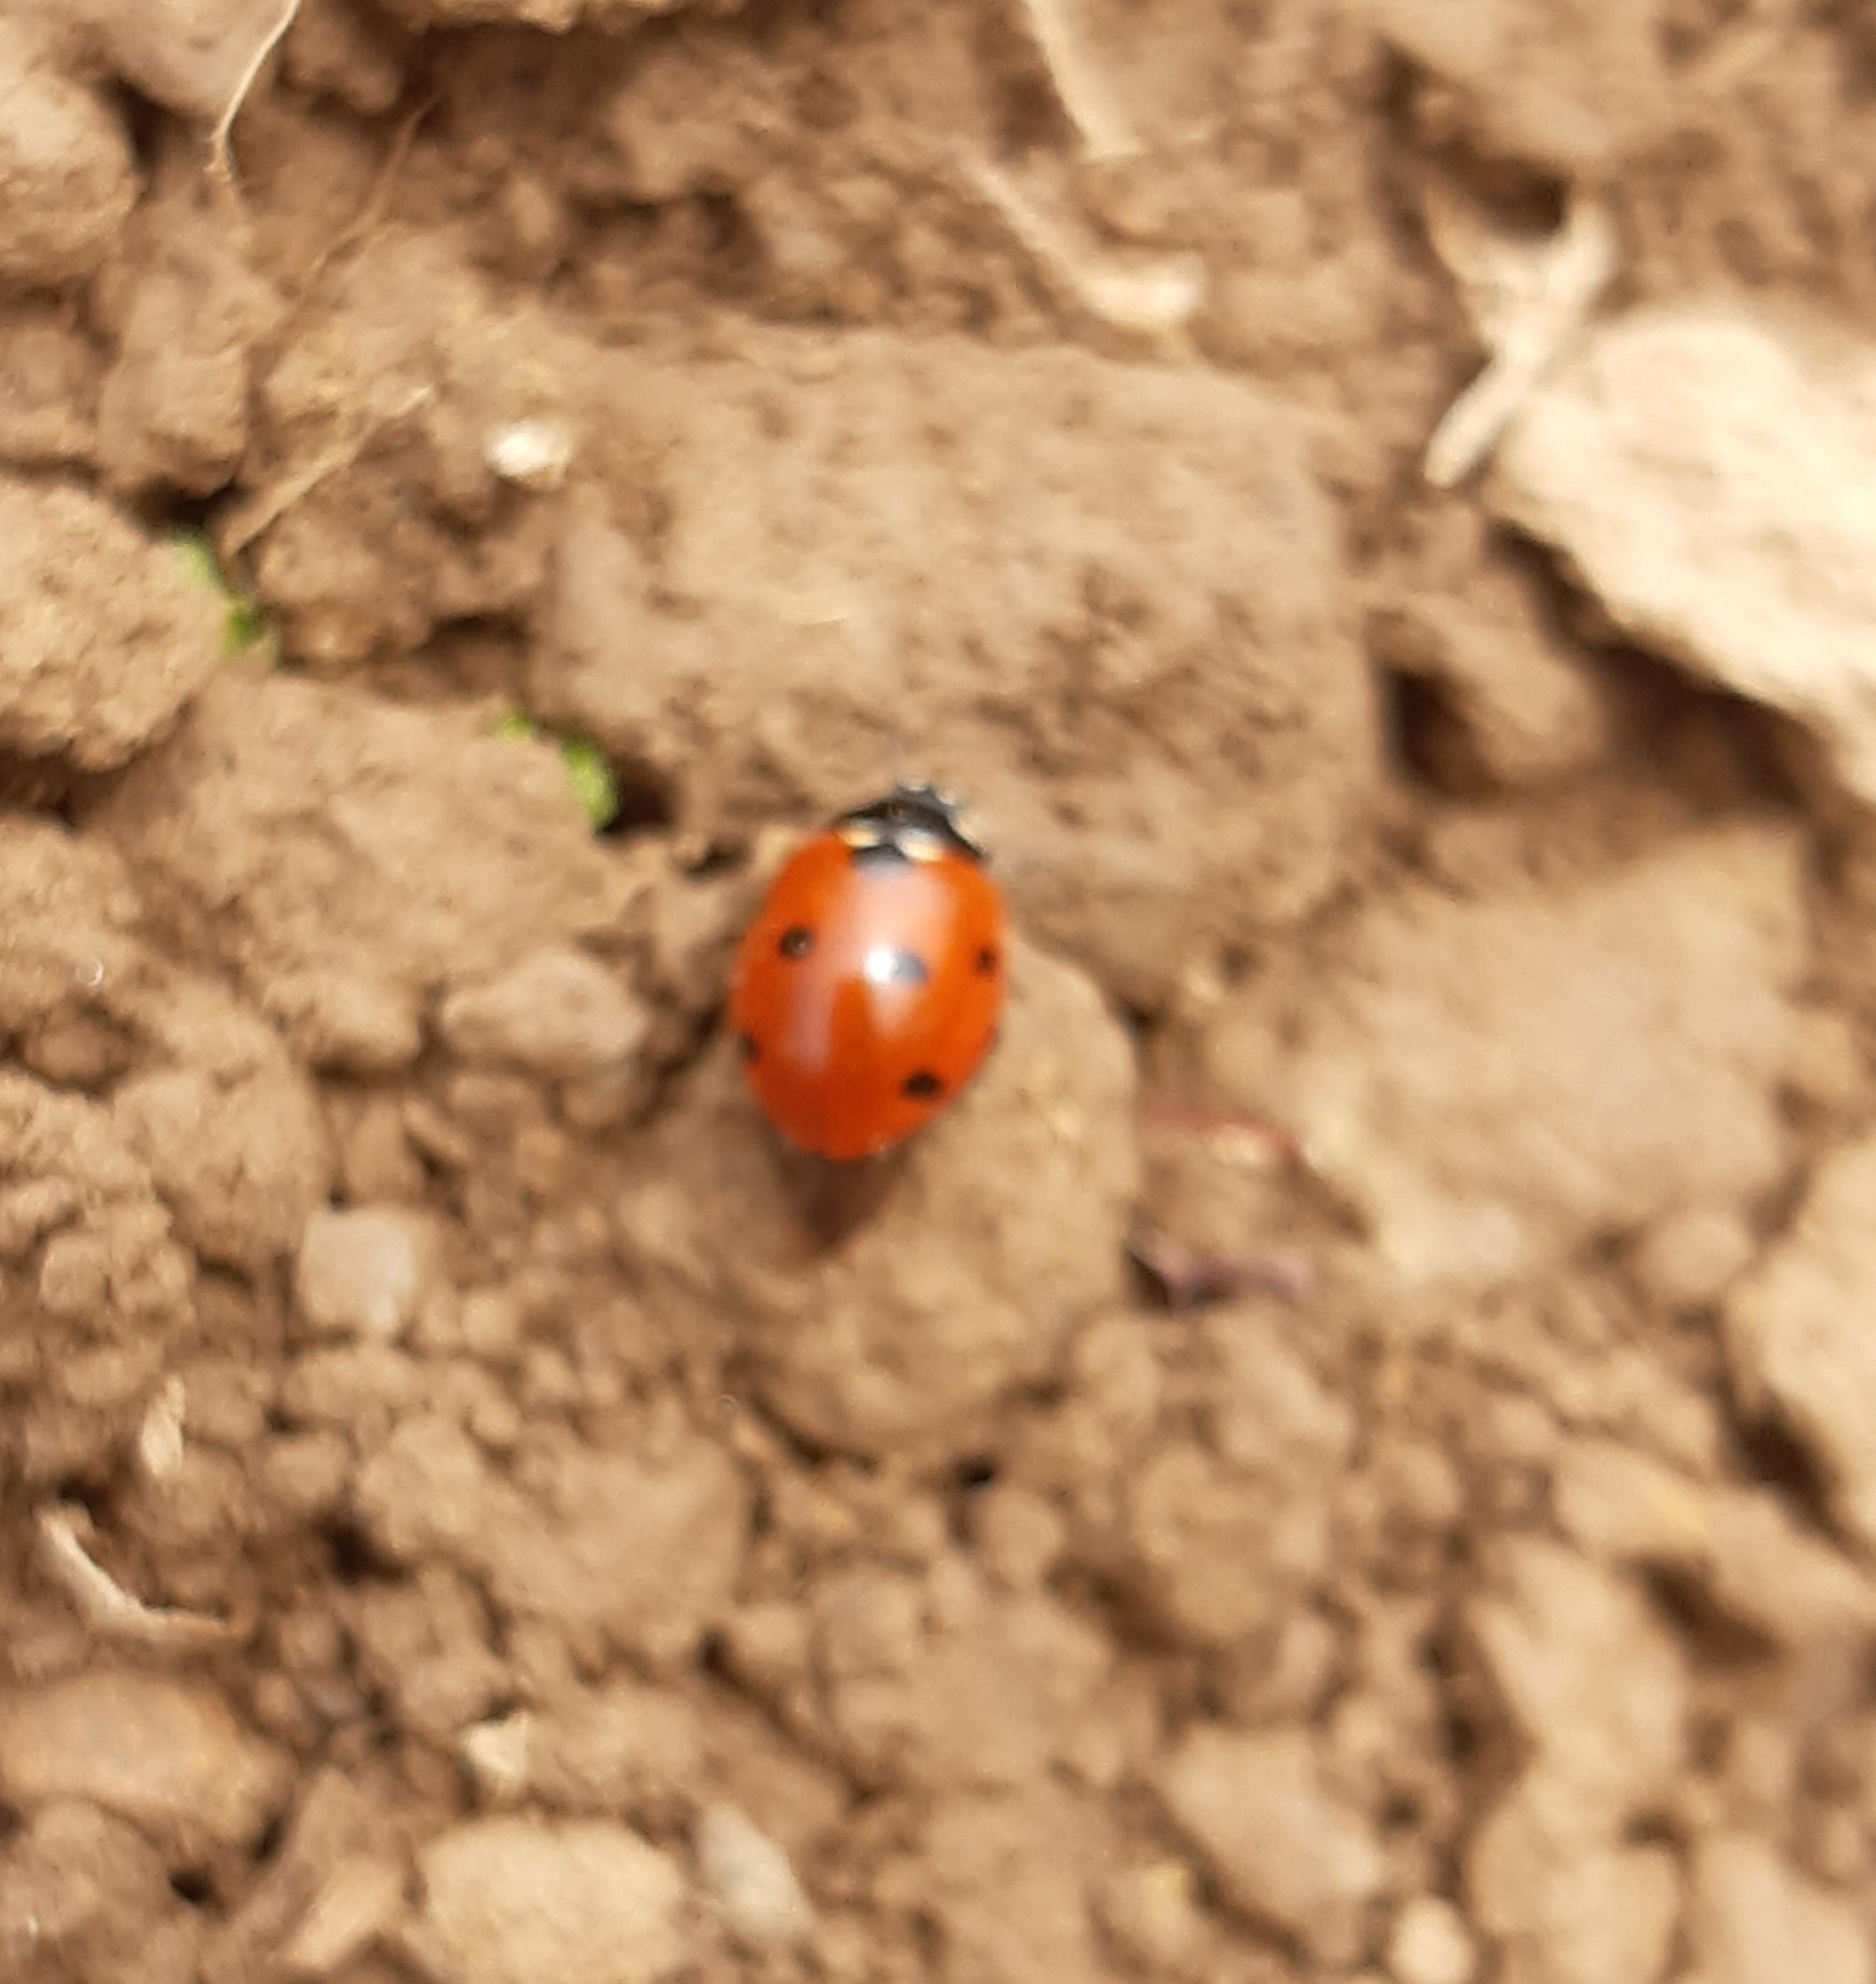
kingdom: Animalia
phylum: Arthropoda
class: Insecta
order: Coleoptera
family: Coccinellidae
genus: Coccinella
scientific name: Coccinella septempunctata
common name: Sevenspotted lady beetle
